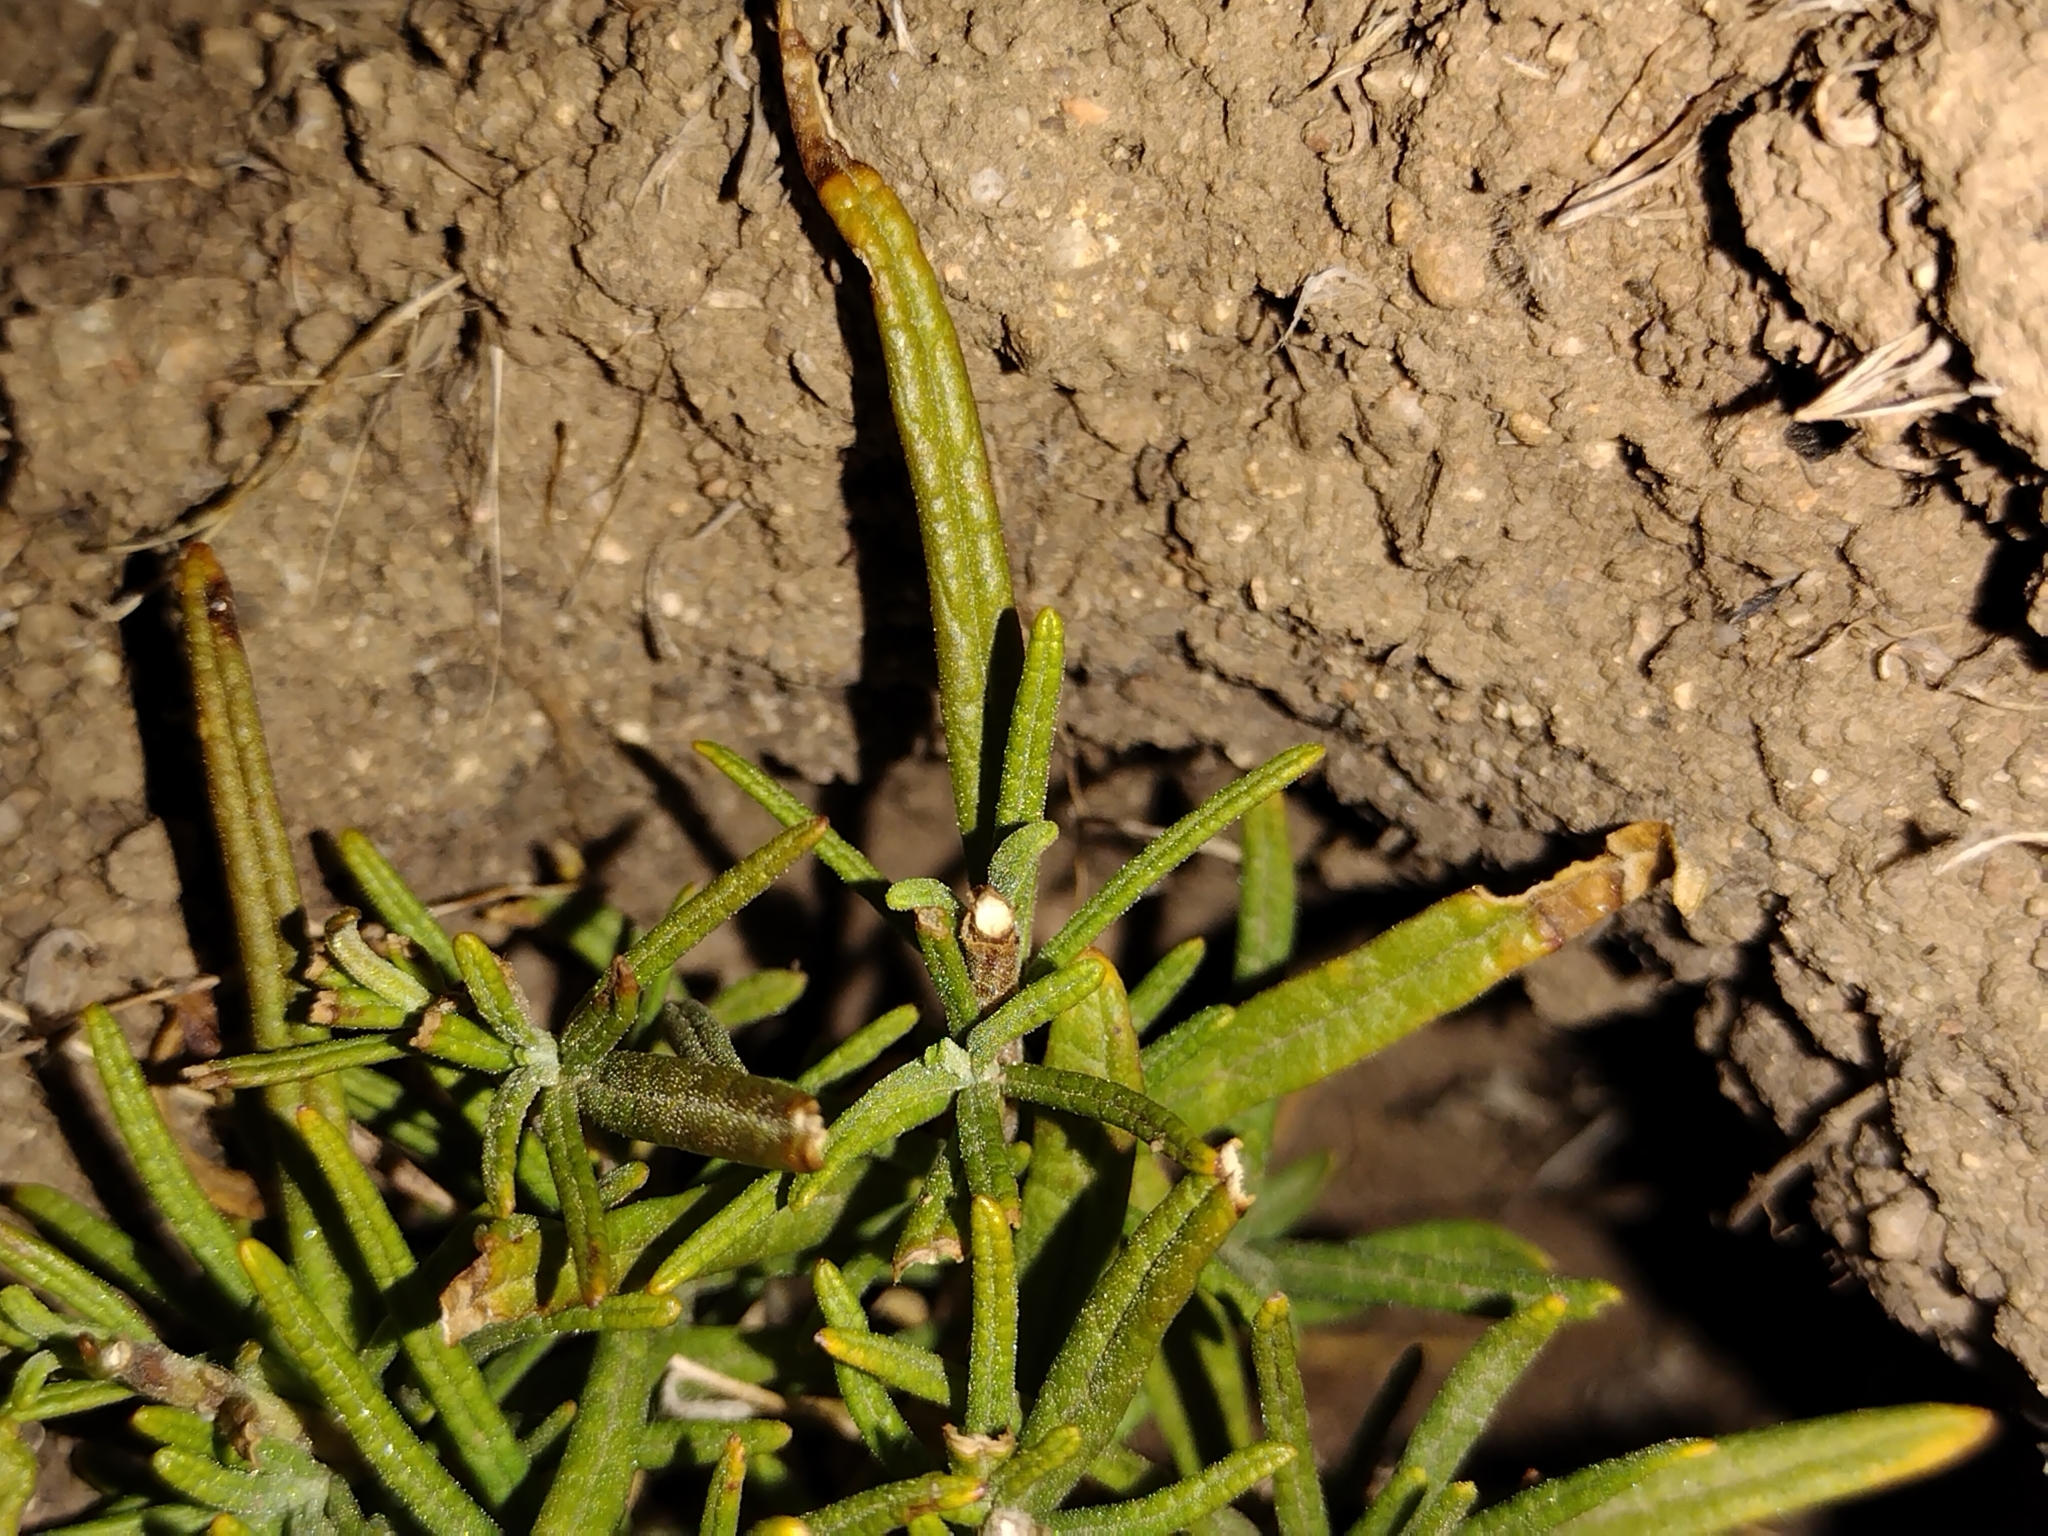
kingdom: Plantae
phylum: Tracheophyta
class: Magnoliopsida
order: Lamiales
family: Lamiaceae
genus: Trichostema
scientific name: Trichostema lanatum
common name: Woolly bluecurls
